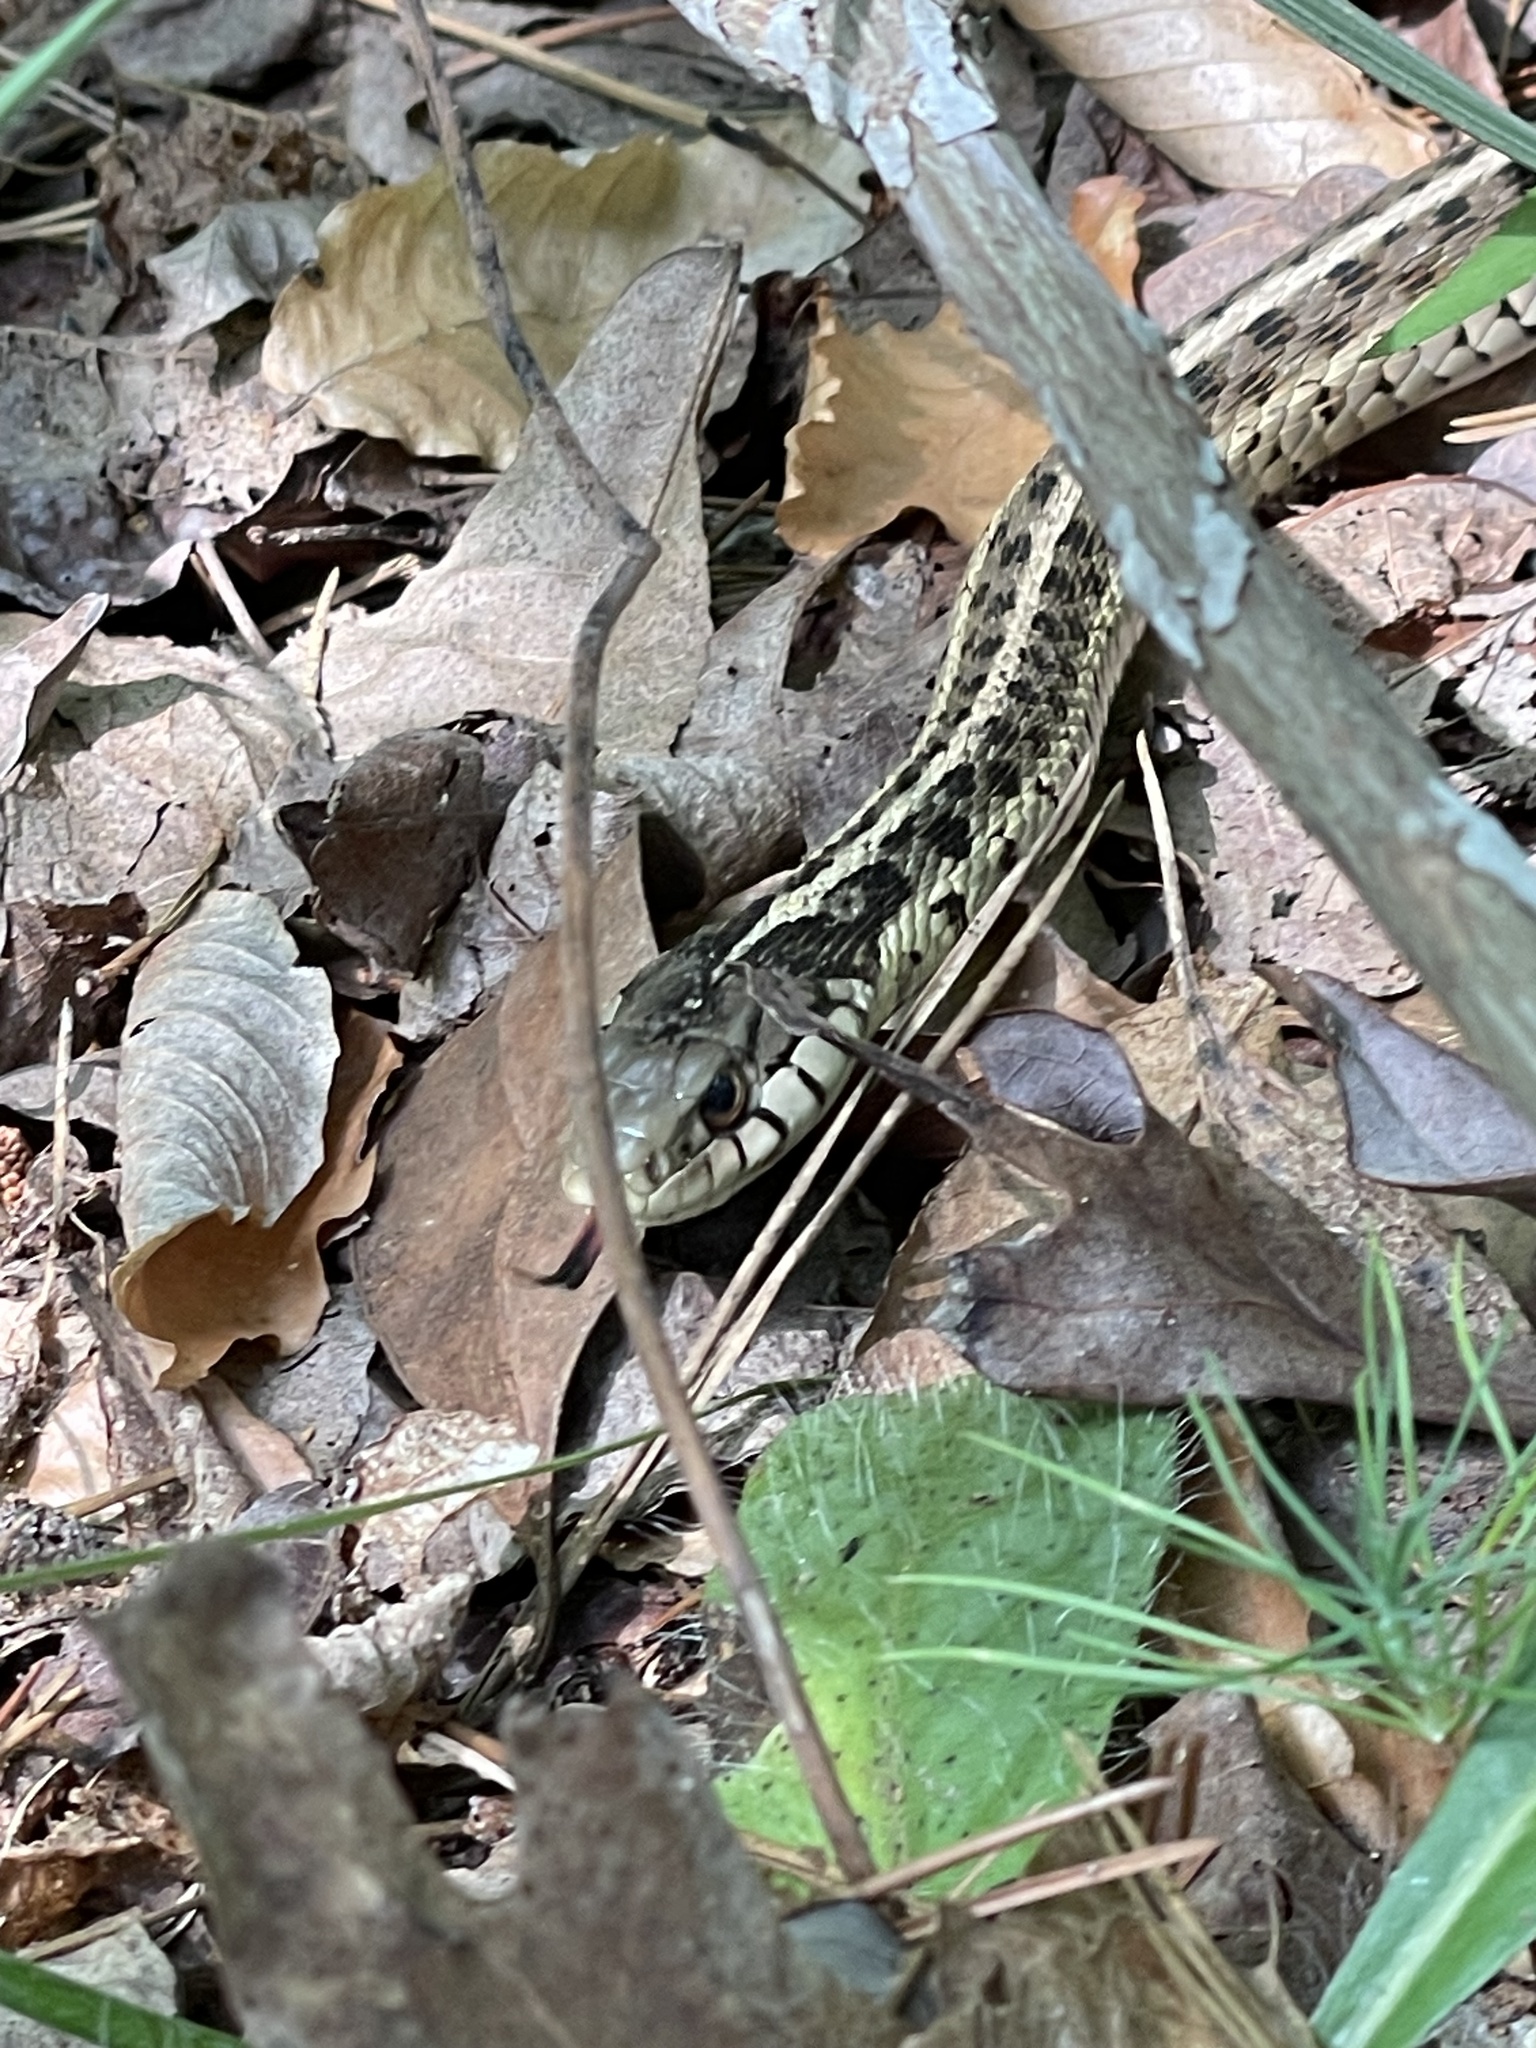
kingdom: Animalia
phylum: Chordata
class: Squamata
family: Colubridae
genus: Thamnophis
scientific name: Thamnophis sirtalis
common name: Common garter snake
